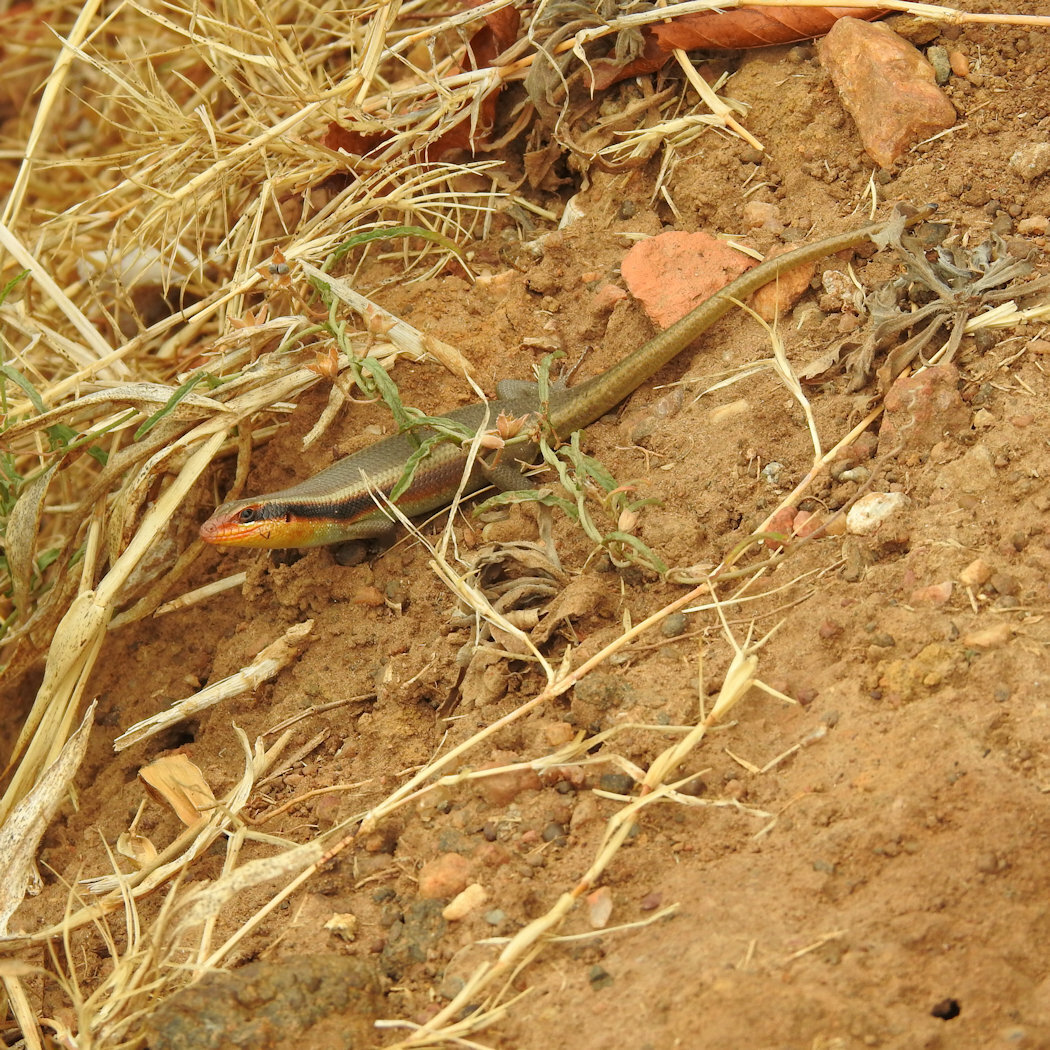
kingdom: Animalia
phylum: Chordata
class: Squamata
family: Scincidae
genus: Trachylepis
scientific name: Trachylepis wahlbergii
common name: Wahlberg’s striped skink
